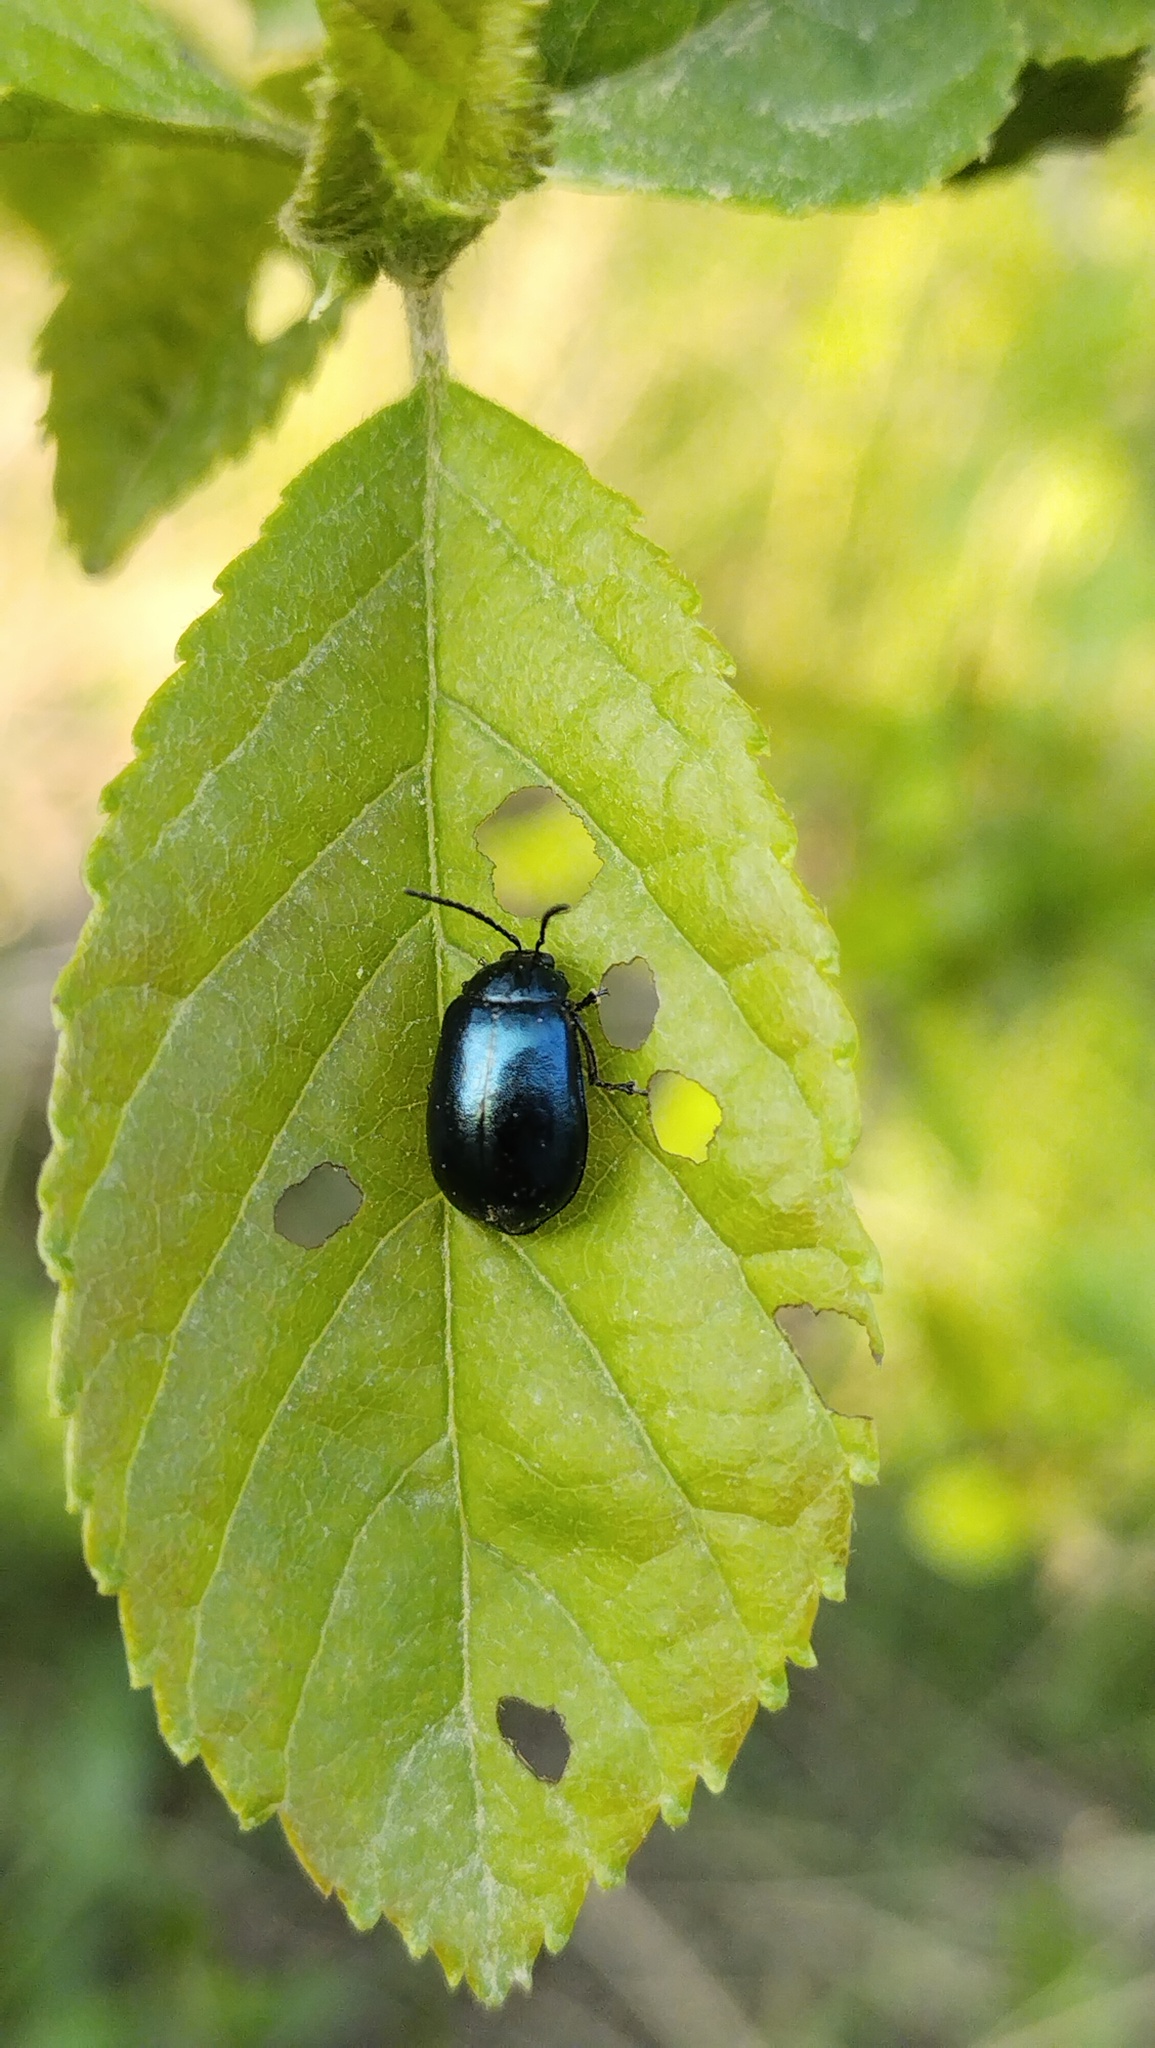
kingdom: Animalia
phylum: Arthropoda
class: Insecta
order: Coleoptera
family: Chrysomelidae
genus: Agelastica
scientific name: Agelastica coerulea
